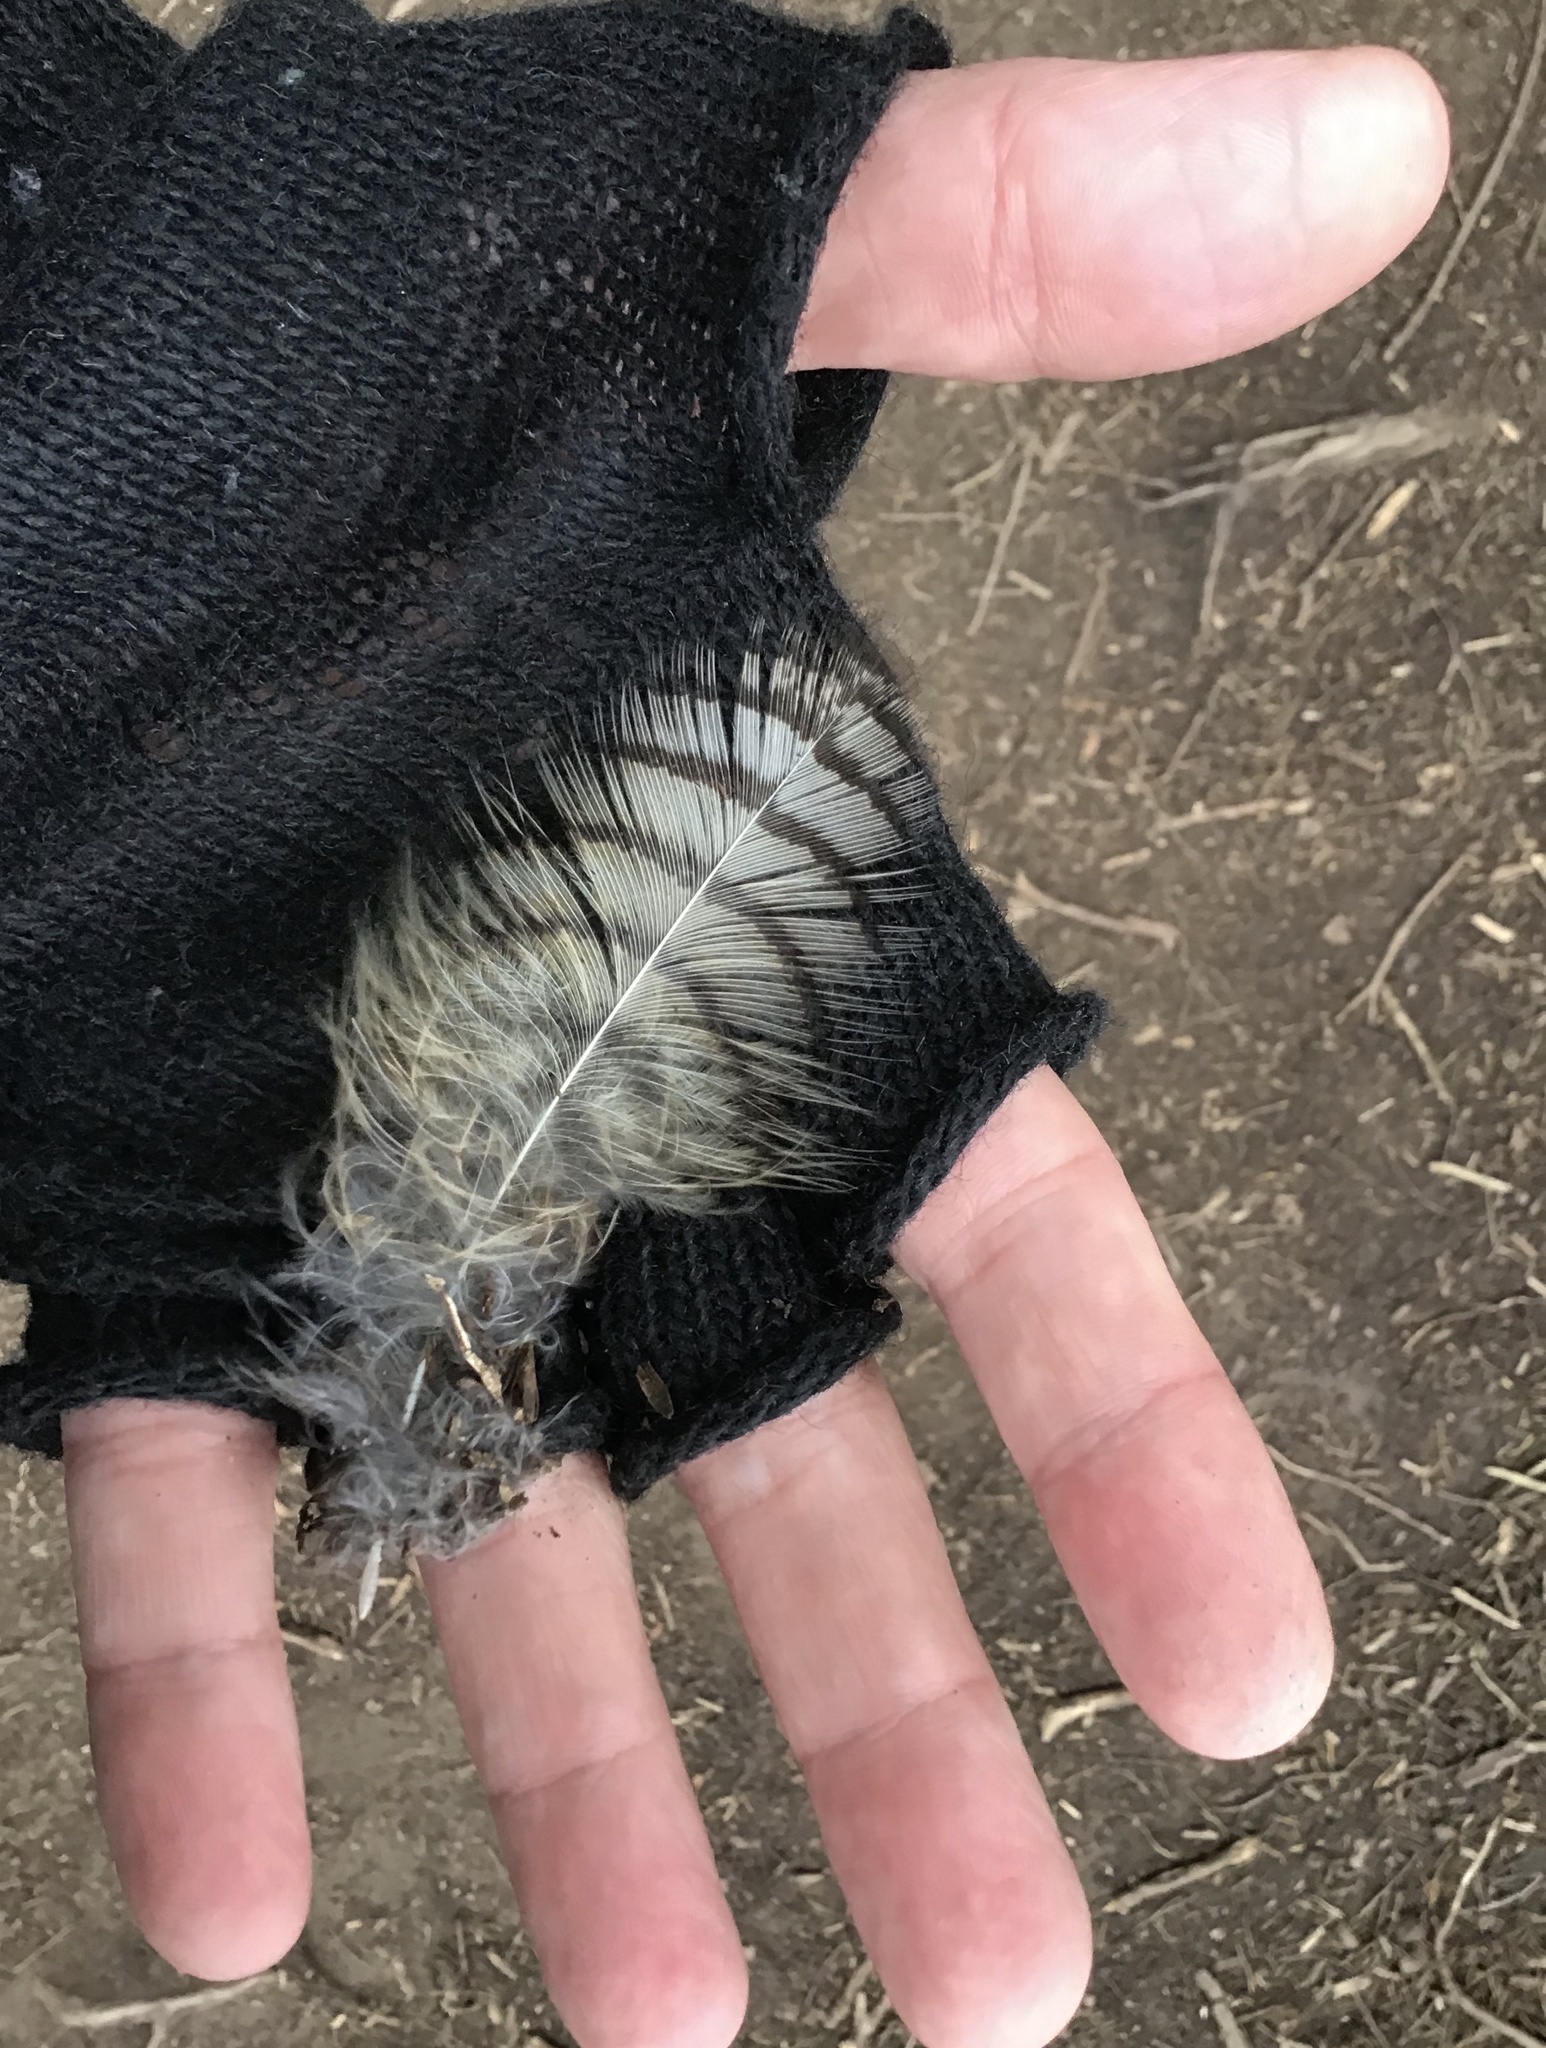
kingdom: Animalia
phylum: Chordata
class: Aves
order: Strigiformes
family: Strigidae
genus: Bubo
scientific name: Bubo virginianus
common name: Great horned owl
